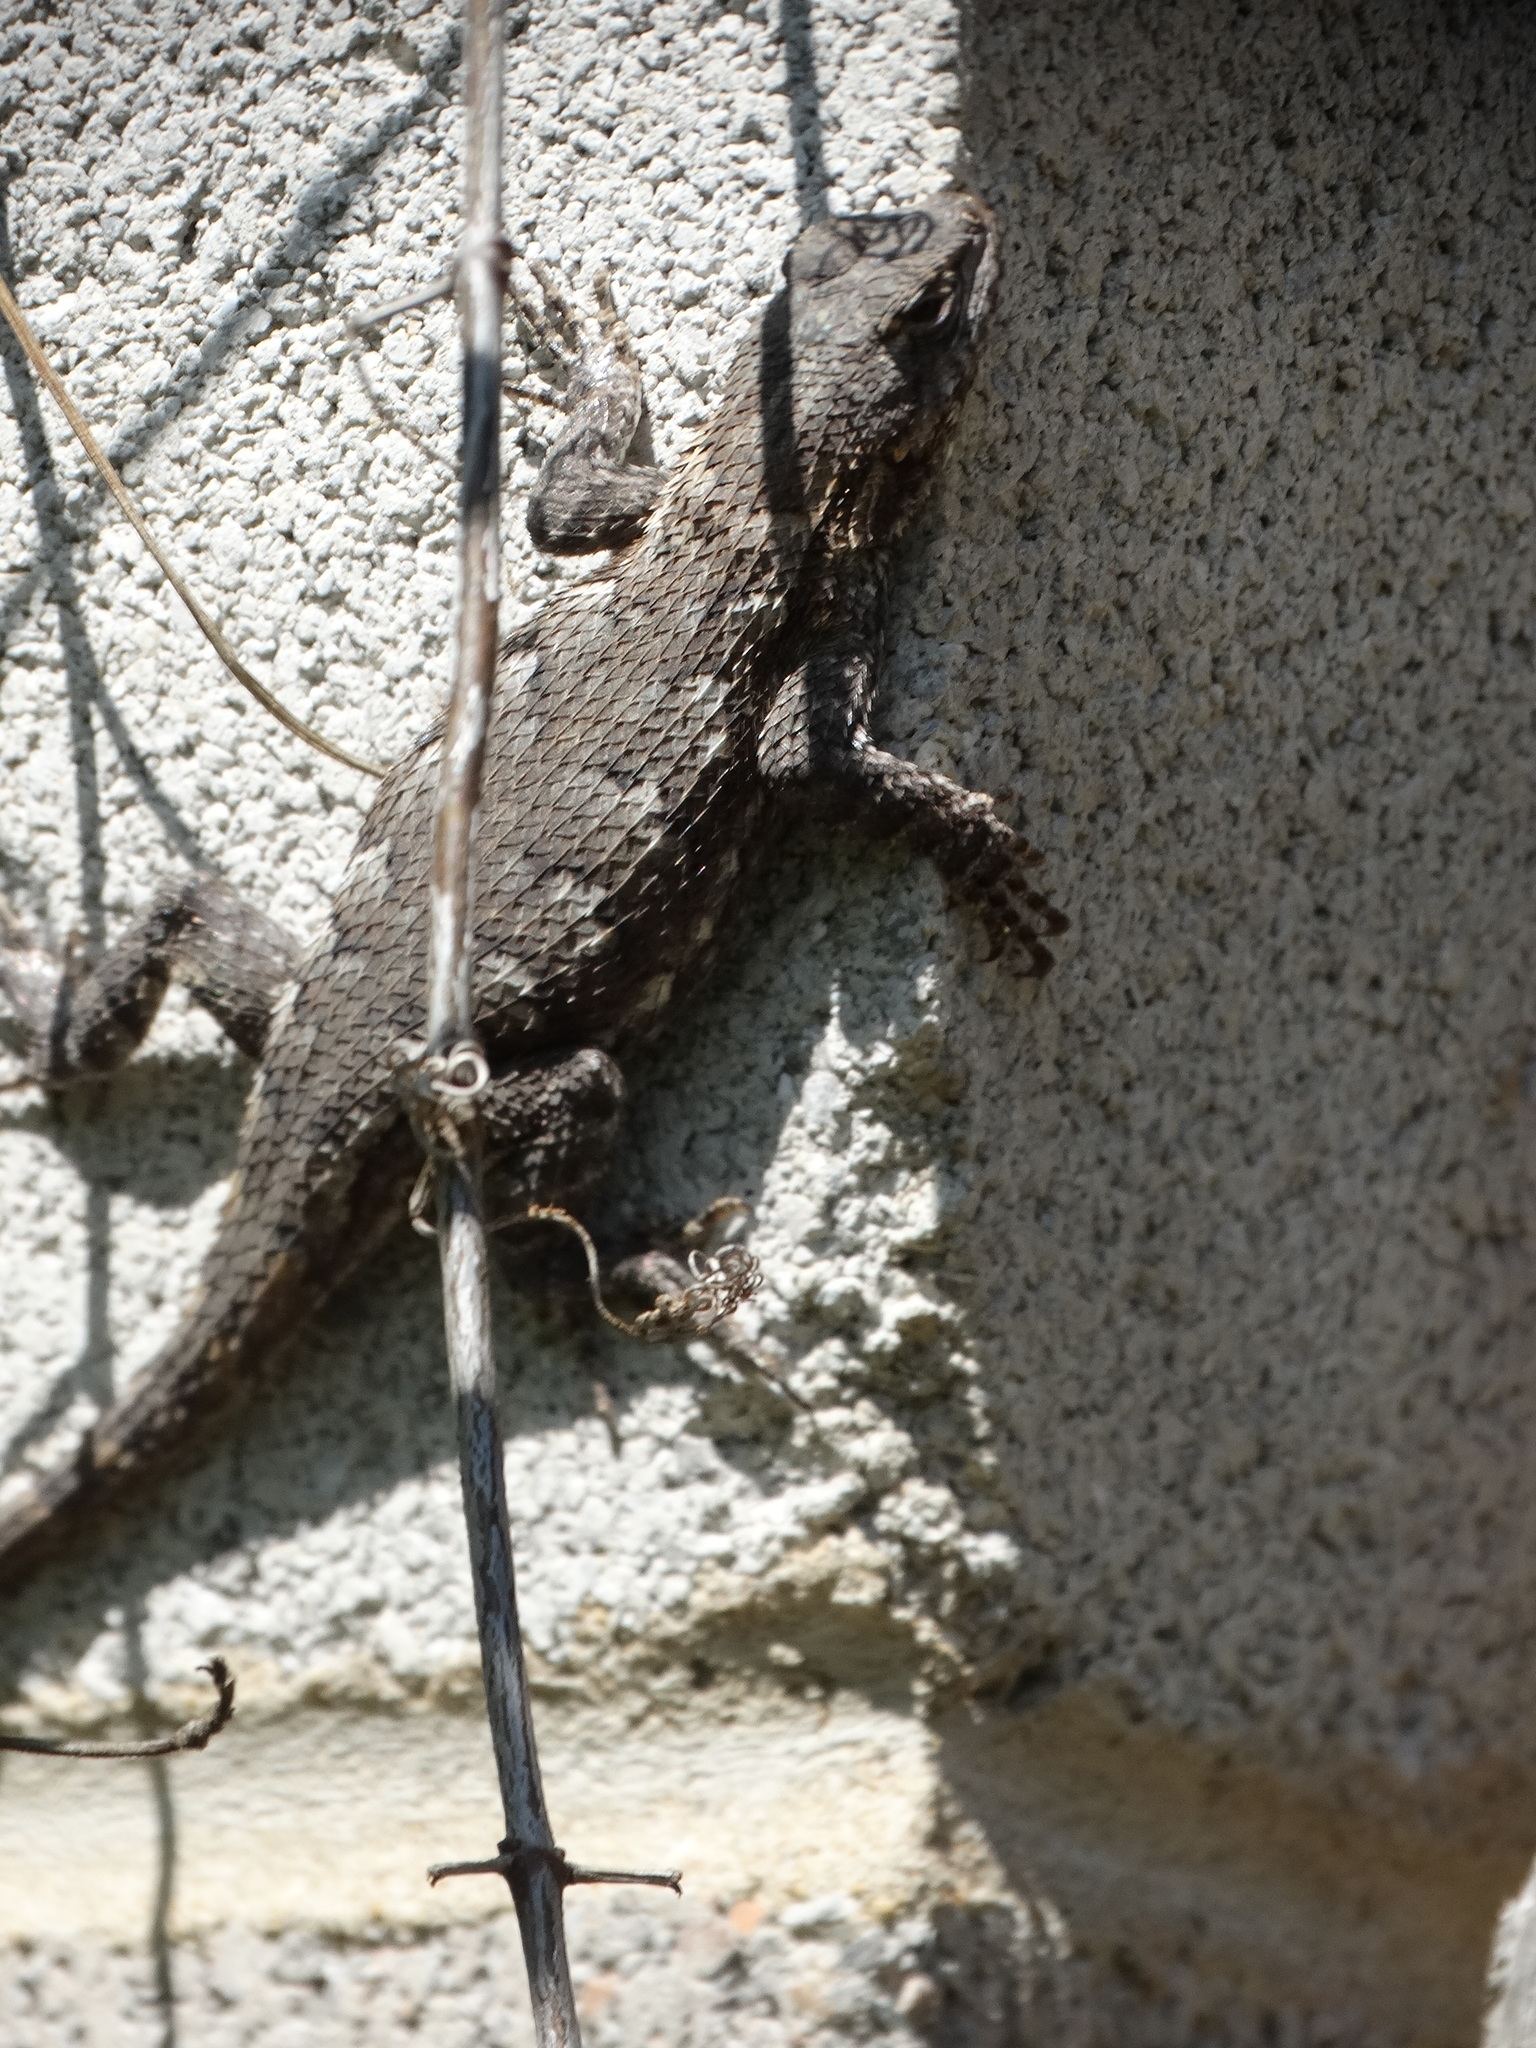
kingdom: Animalia
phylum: Chordata
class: Squamata
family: Phrynosomatidae
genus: Sceloporus
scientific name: Sceloporus undulatus
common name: Eastern fence lizard
